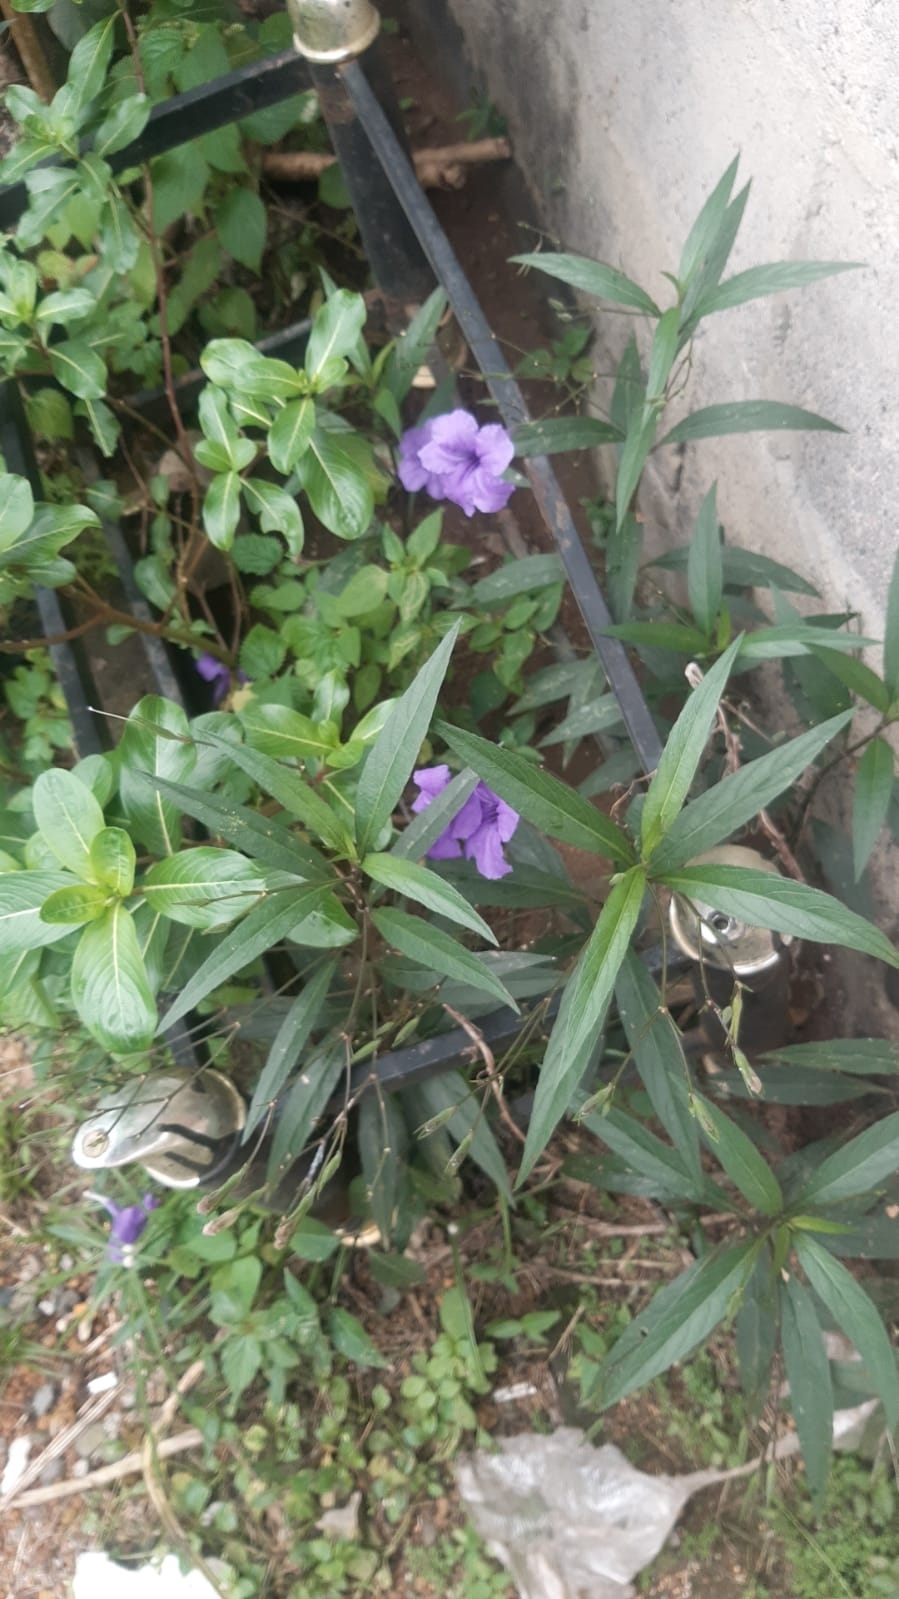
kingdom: Plantae
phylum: Tracheophyta
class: Magnoliopsida
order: Lamiales
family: Acanthaceae
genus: Ruellia
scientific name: Ruellia simplex
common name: Softseed wild petunia
